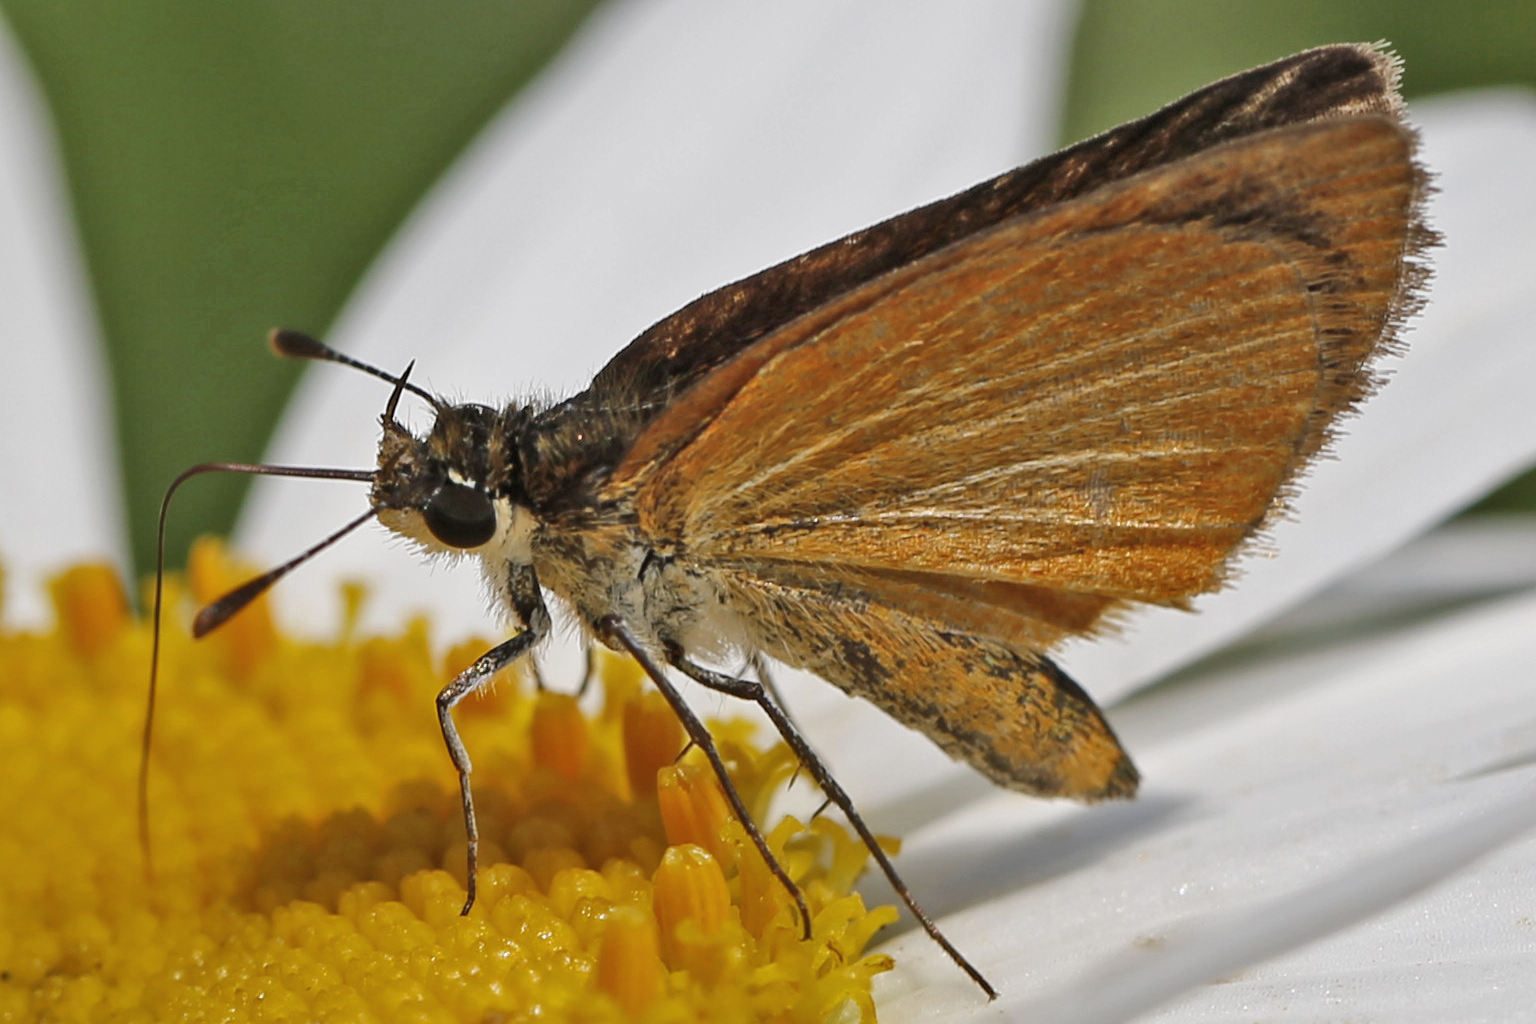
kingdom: Animalia
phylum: Arthropoda
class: Insecta
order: Lepidoptera
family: Hesperiidae
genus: Ancyloxypha
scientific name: Ancyloxypha numitor
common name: Least skipper
